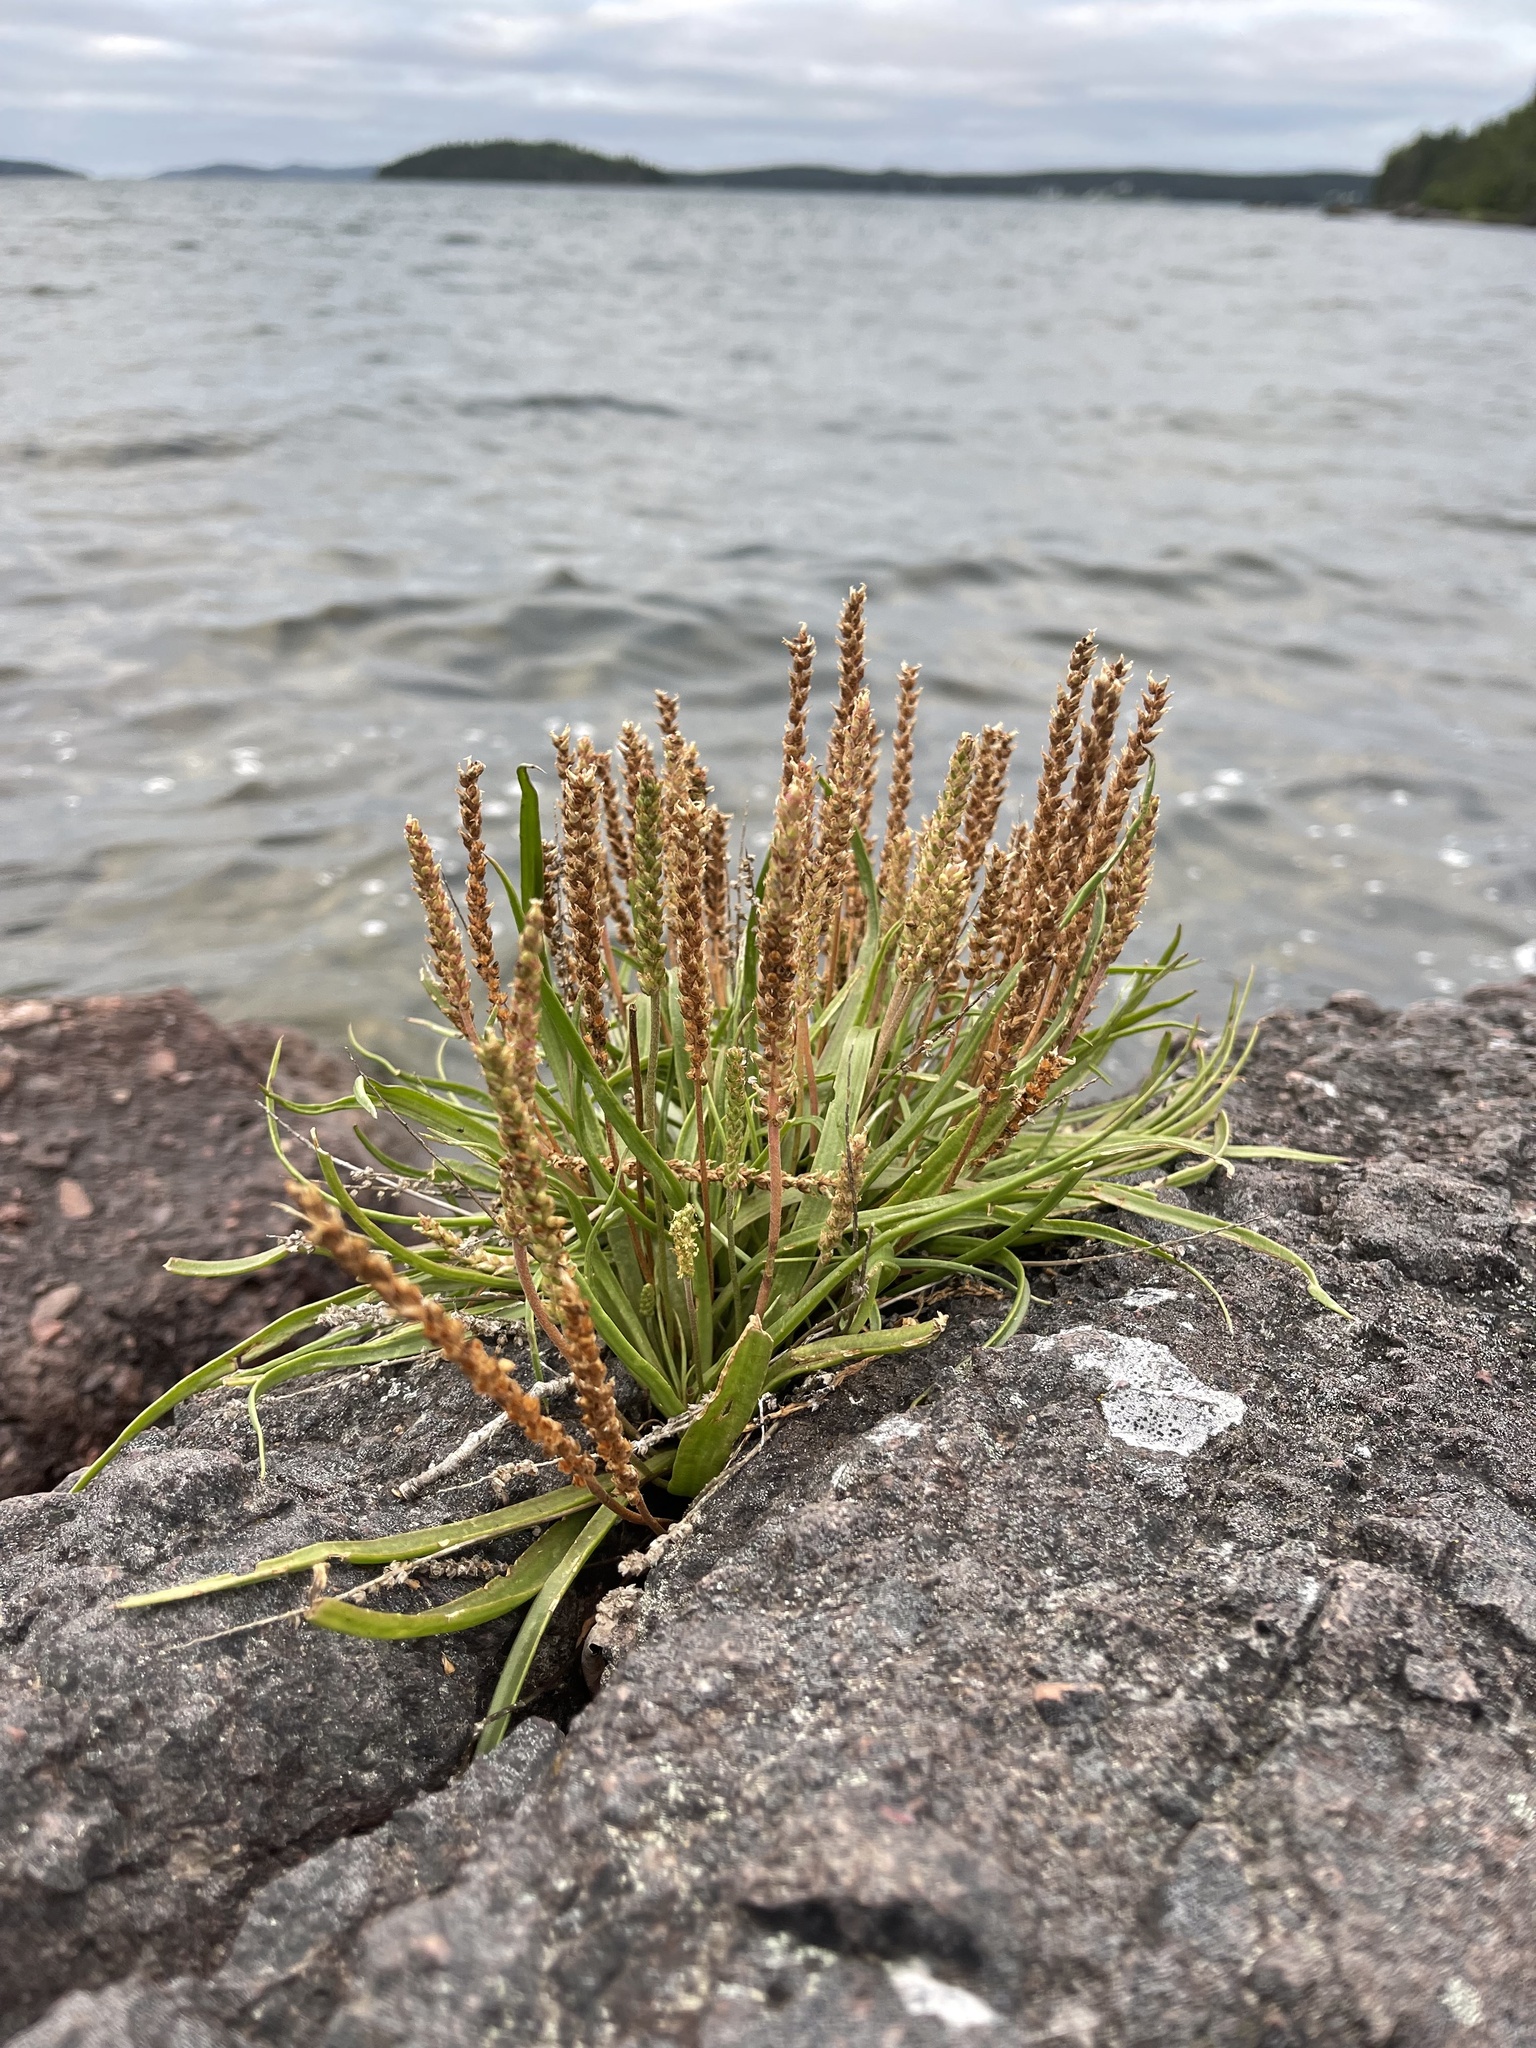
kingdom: Plantae
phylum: Tracheophyta
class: Magnoliopsida
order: Lamiales
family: Plantaginaceae
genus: Plantago
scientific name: Plantago maritima
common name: Sea plantain
